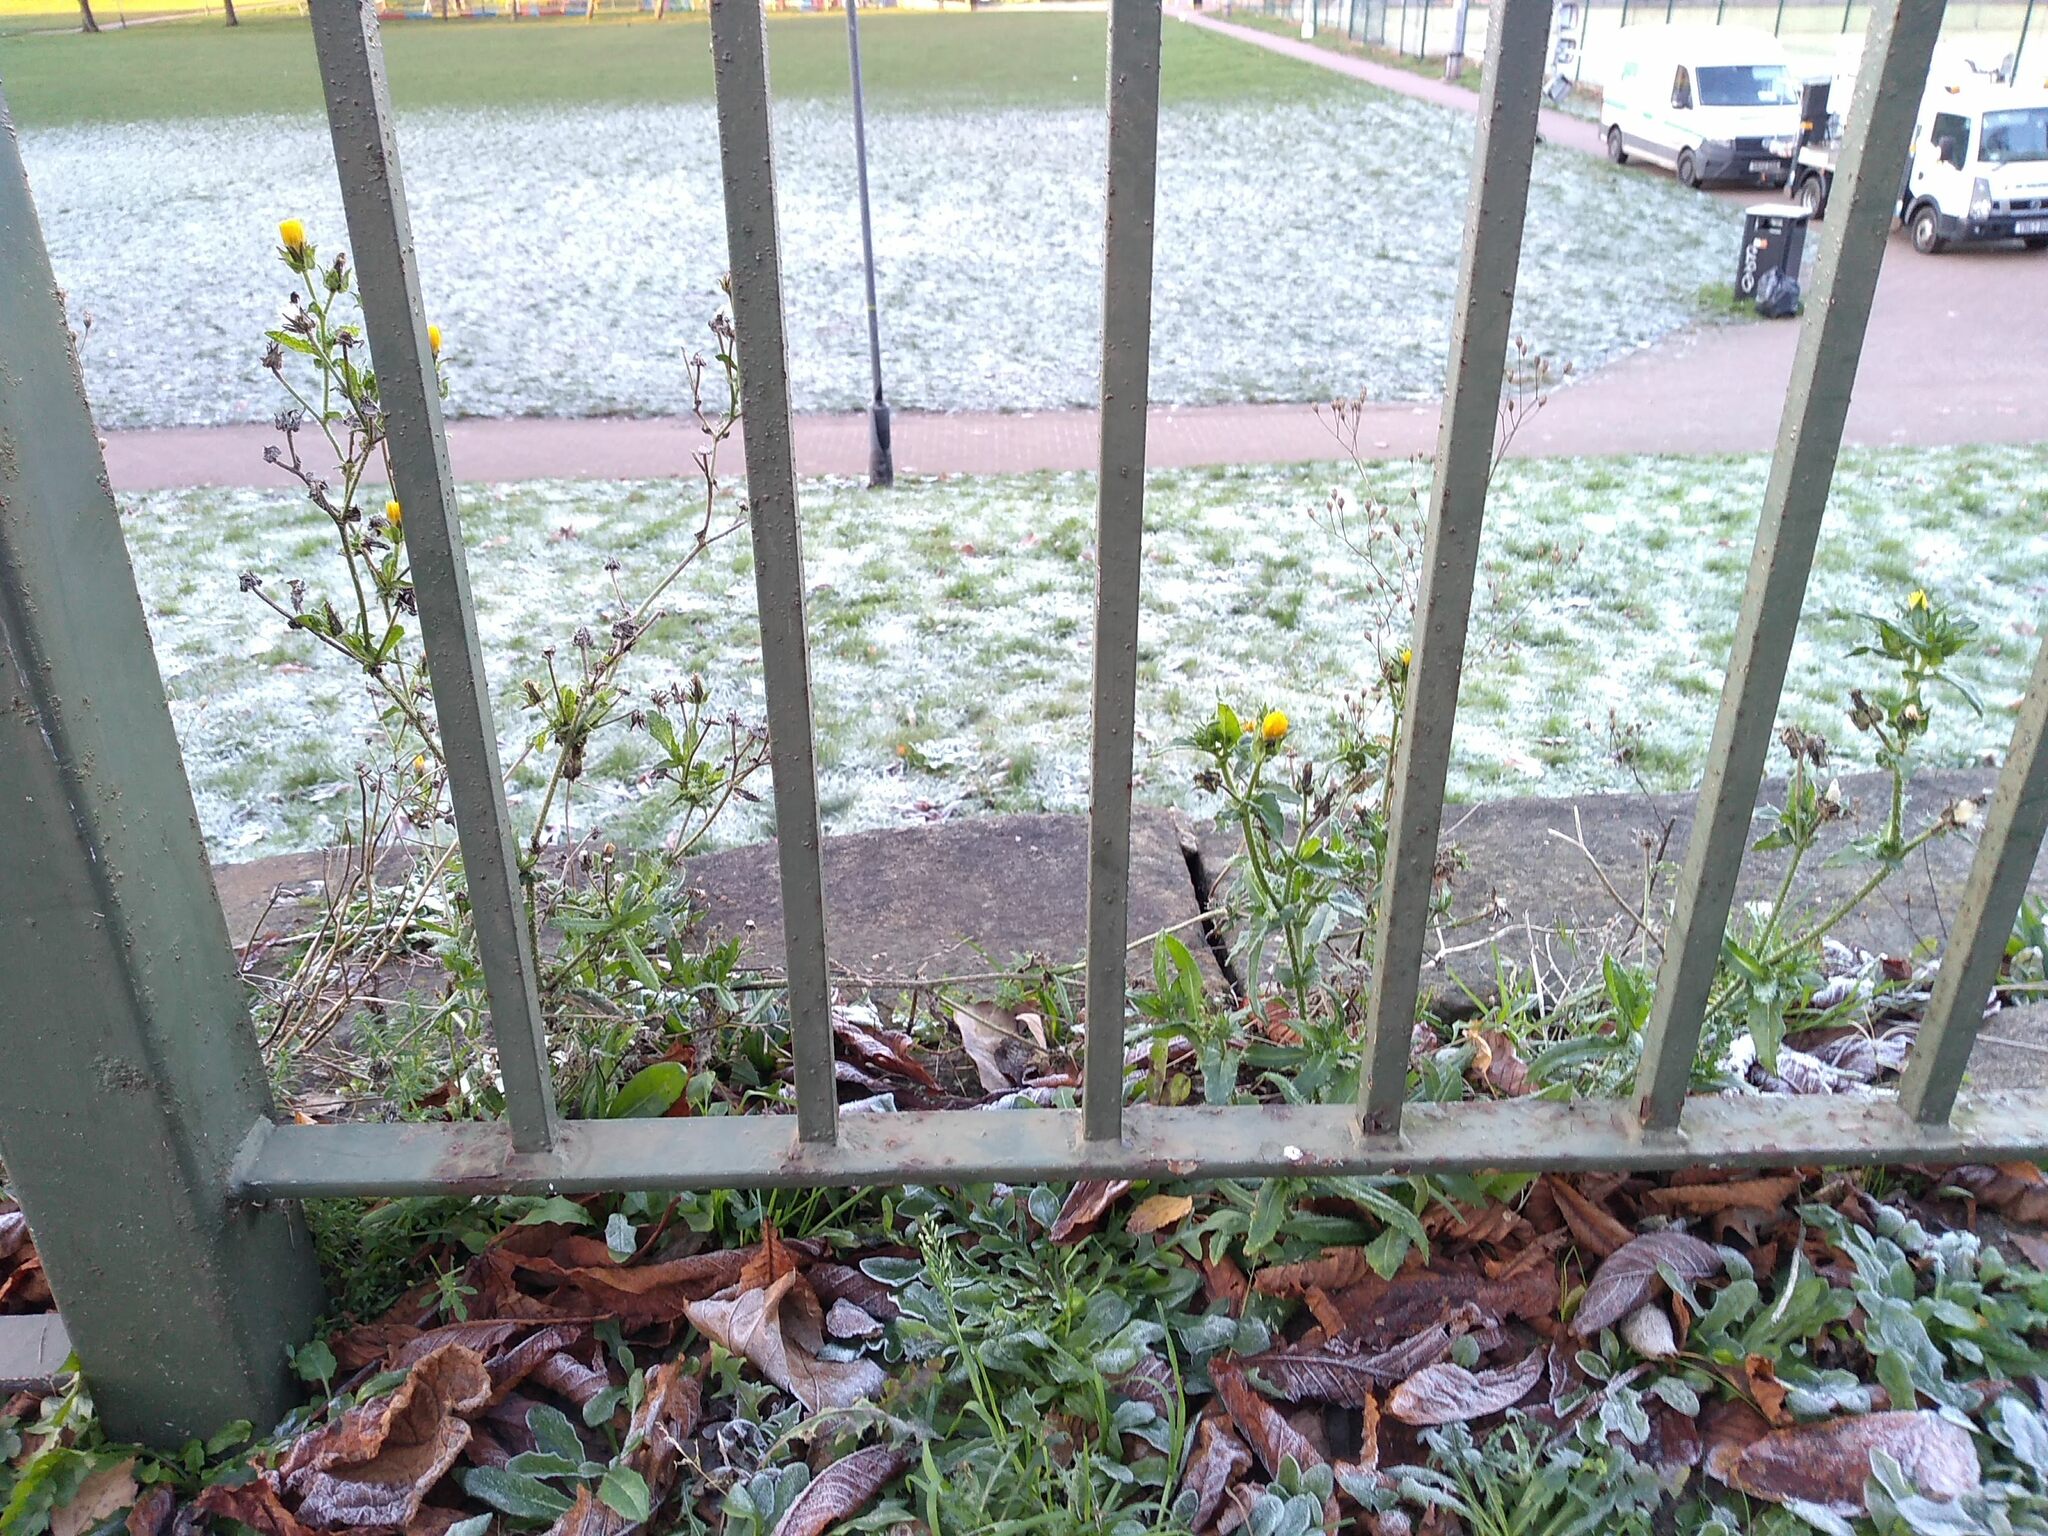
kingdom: Plantae
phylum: Tracheophyta
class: Magnoliopsida
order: Asterales
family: Asteraceae
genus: Helminthotheca
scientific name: Helminthotheca echioides
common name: Ox-tongue
